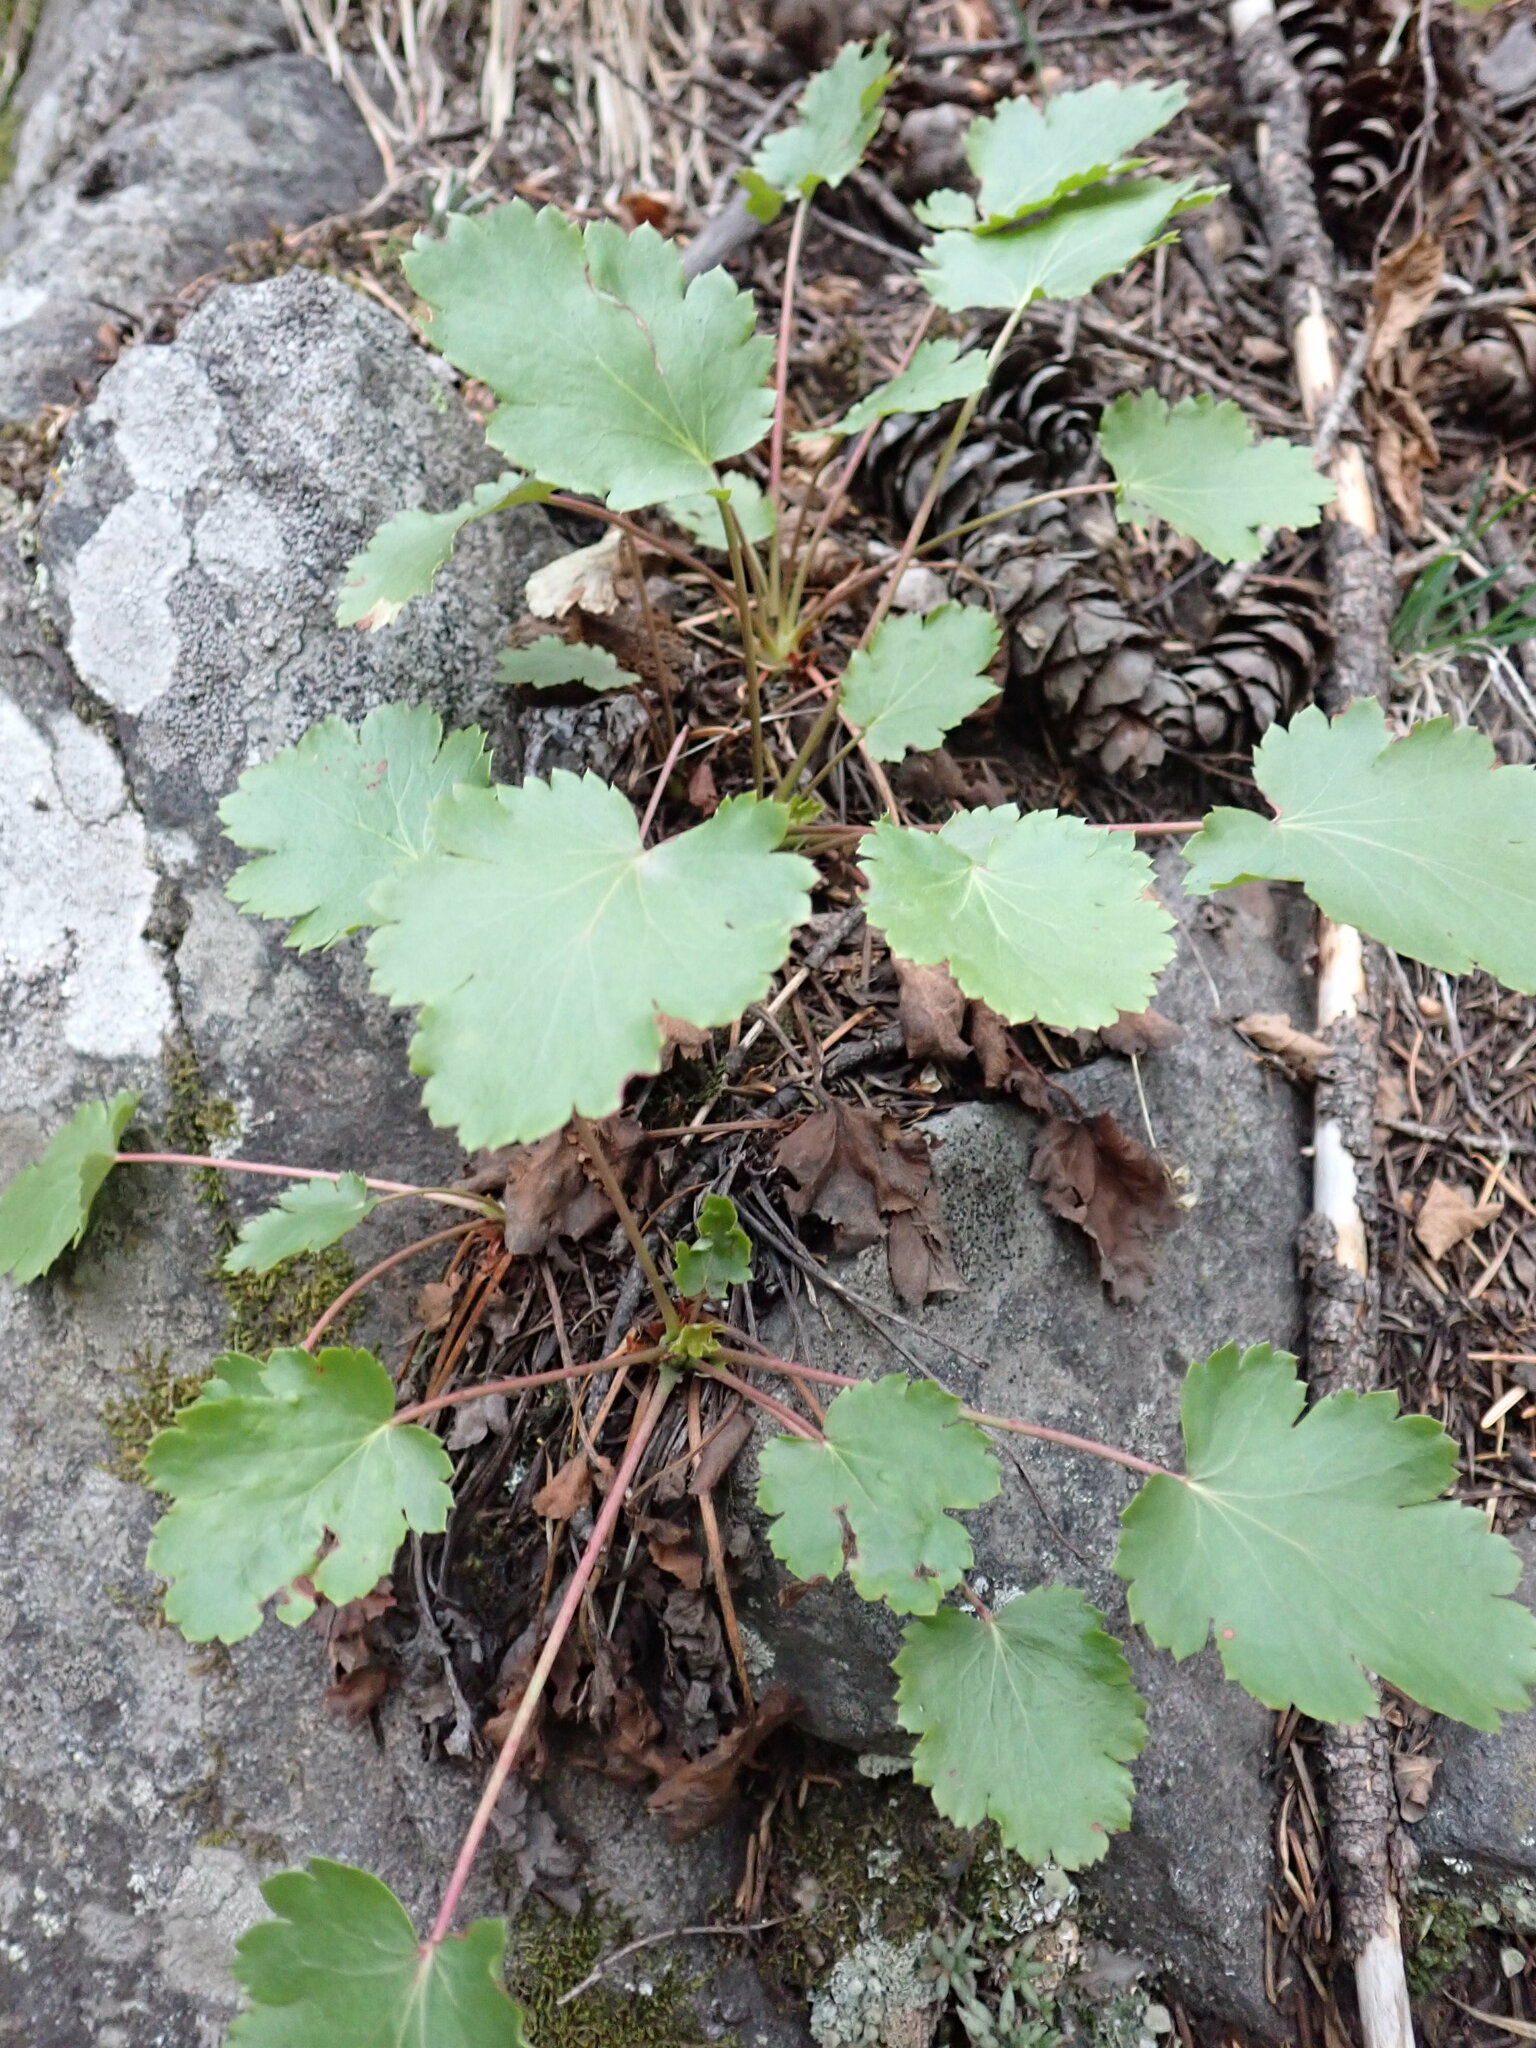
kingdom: Plantae
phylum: Tracheophyta
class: Magnoliopsida
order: Saxifragales
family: Saxifragaceae
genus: Heuchera
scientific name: Heuchera cylindrica
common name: Mat alumroot
